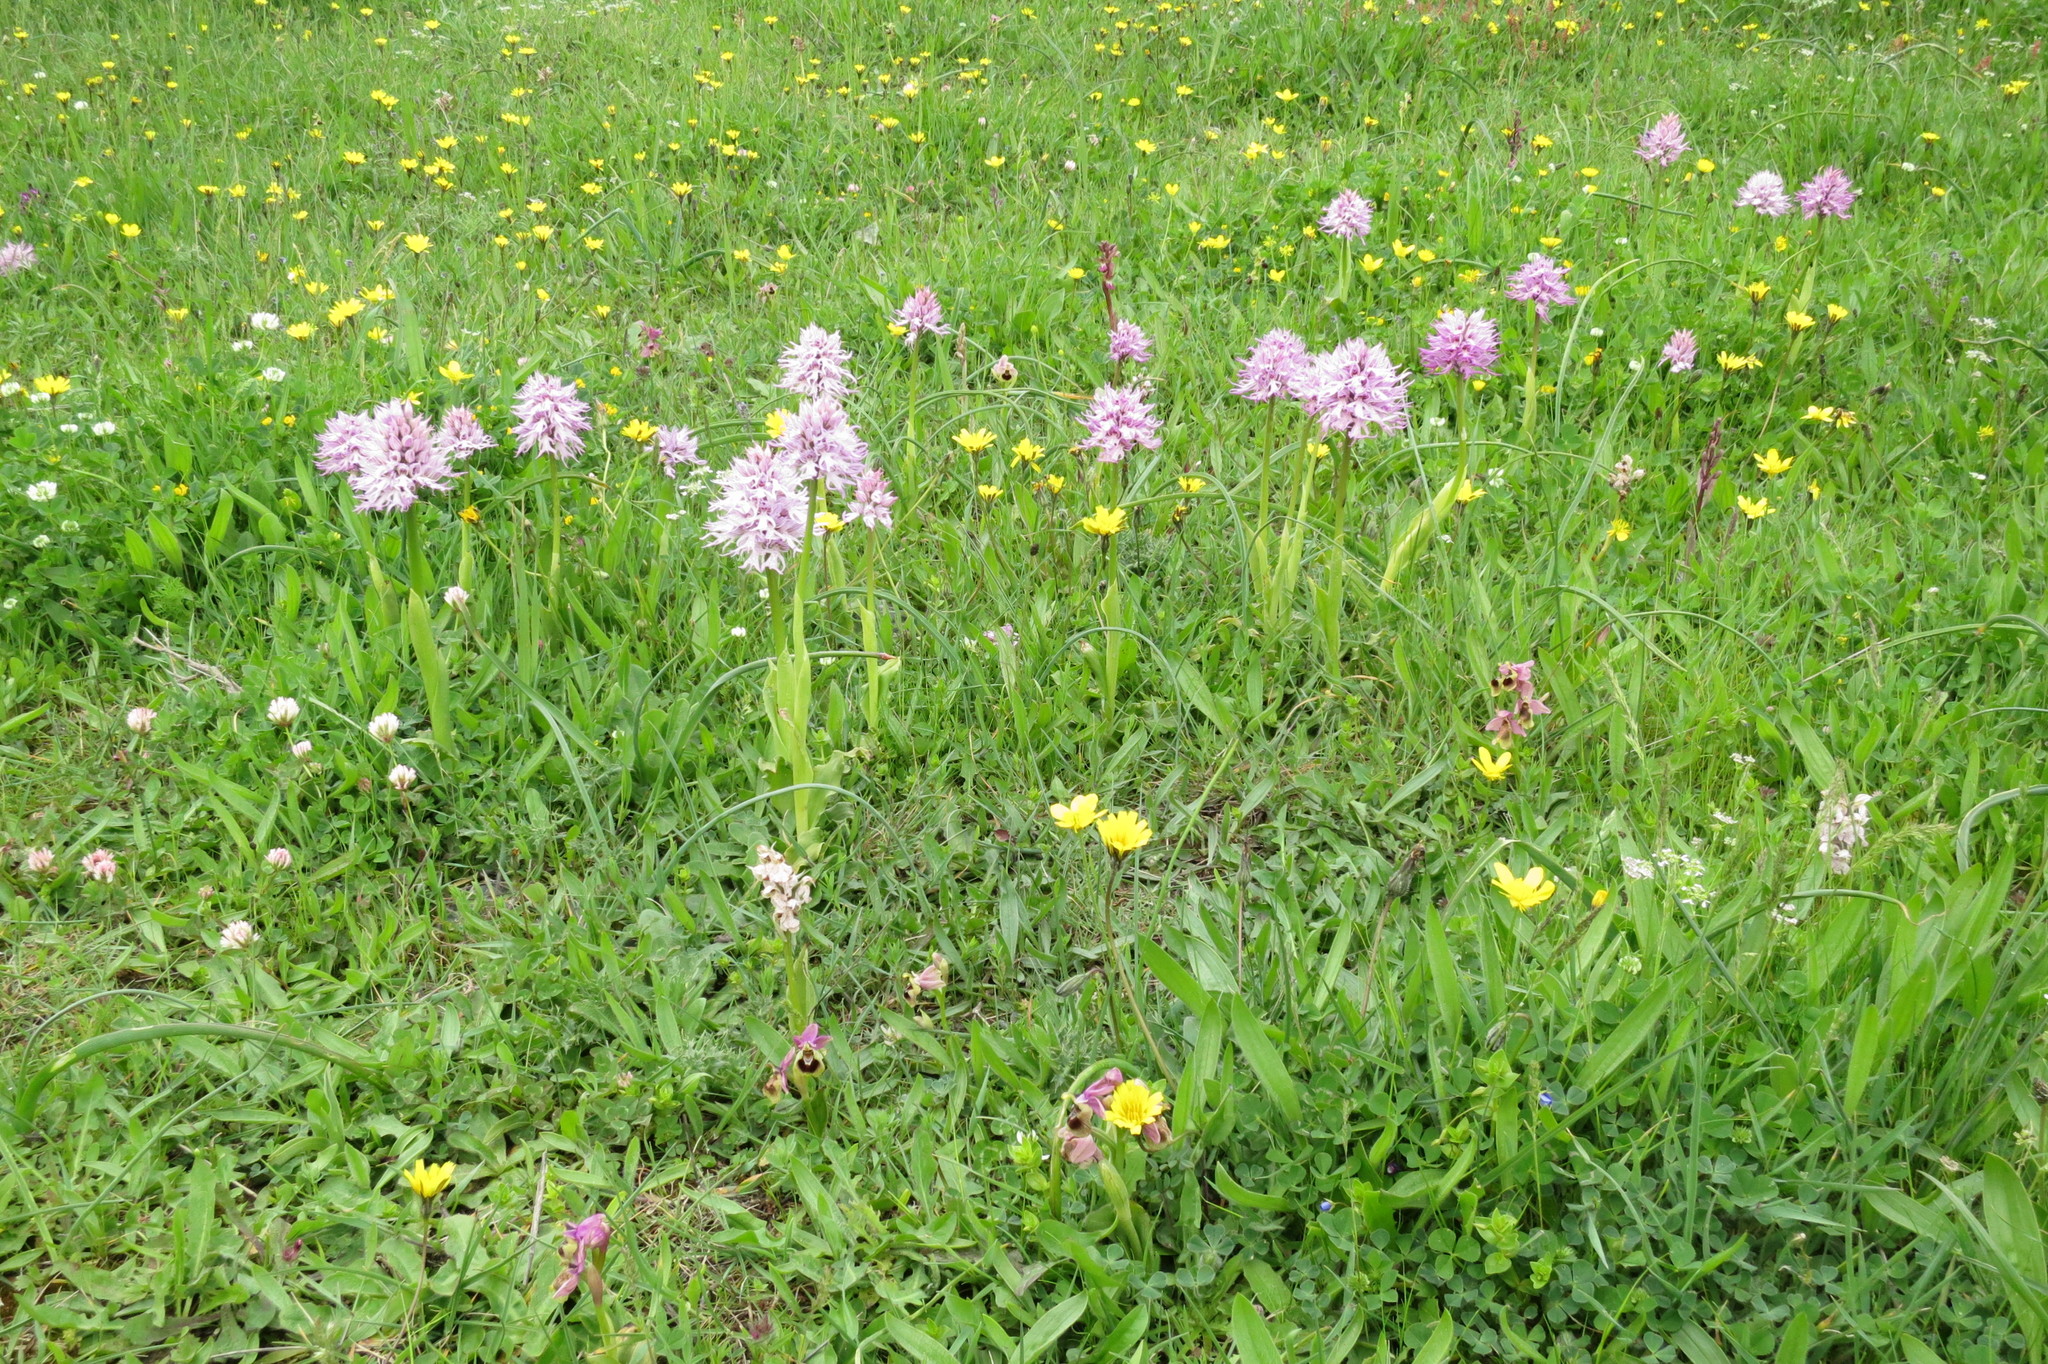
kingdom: Plantae
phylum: Tracheophyta
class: Liliopsida
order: Asparagales
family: Orchidaceae
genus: Ophrys
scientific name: Ophrys tenthredinifera
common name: Sawfly orchid
